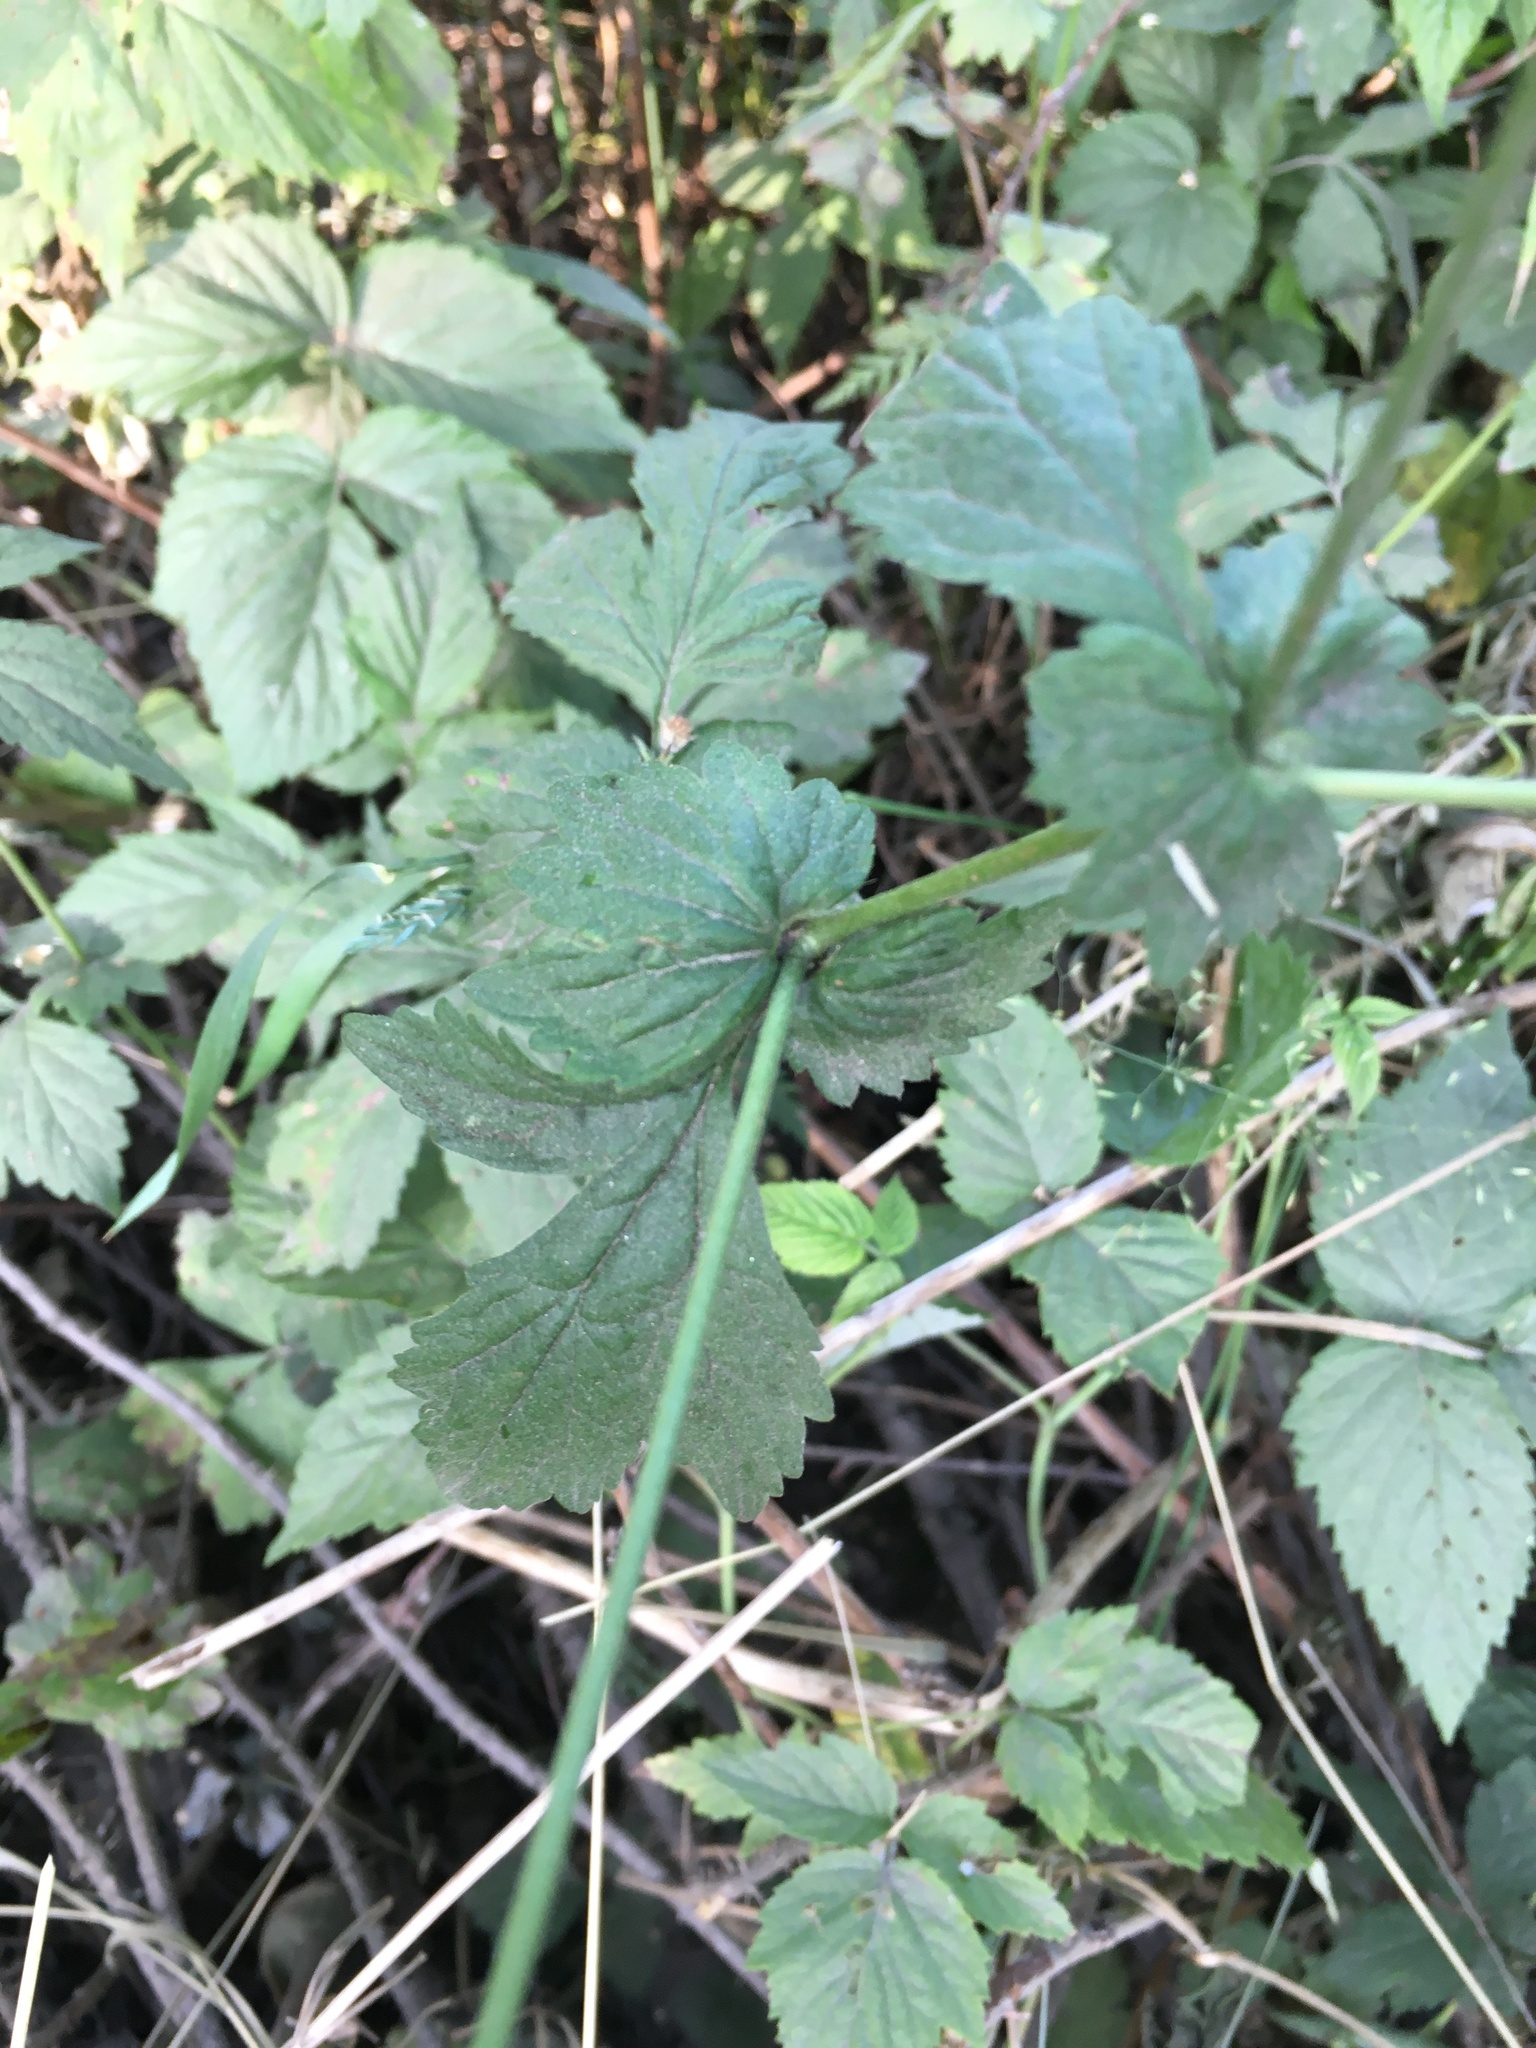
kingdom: Plantae
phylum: Tracheophyta
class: Magnoliopsida
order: Rosales
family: Rosaceae
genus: Geum
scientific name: Geum urbanum
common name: Wood avens
